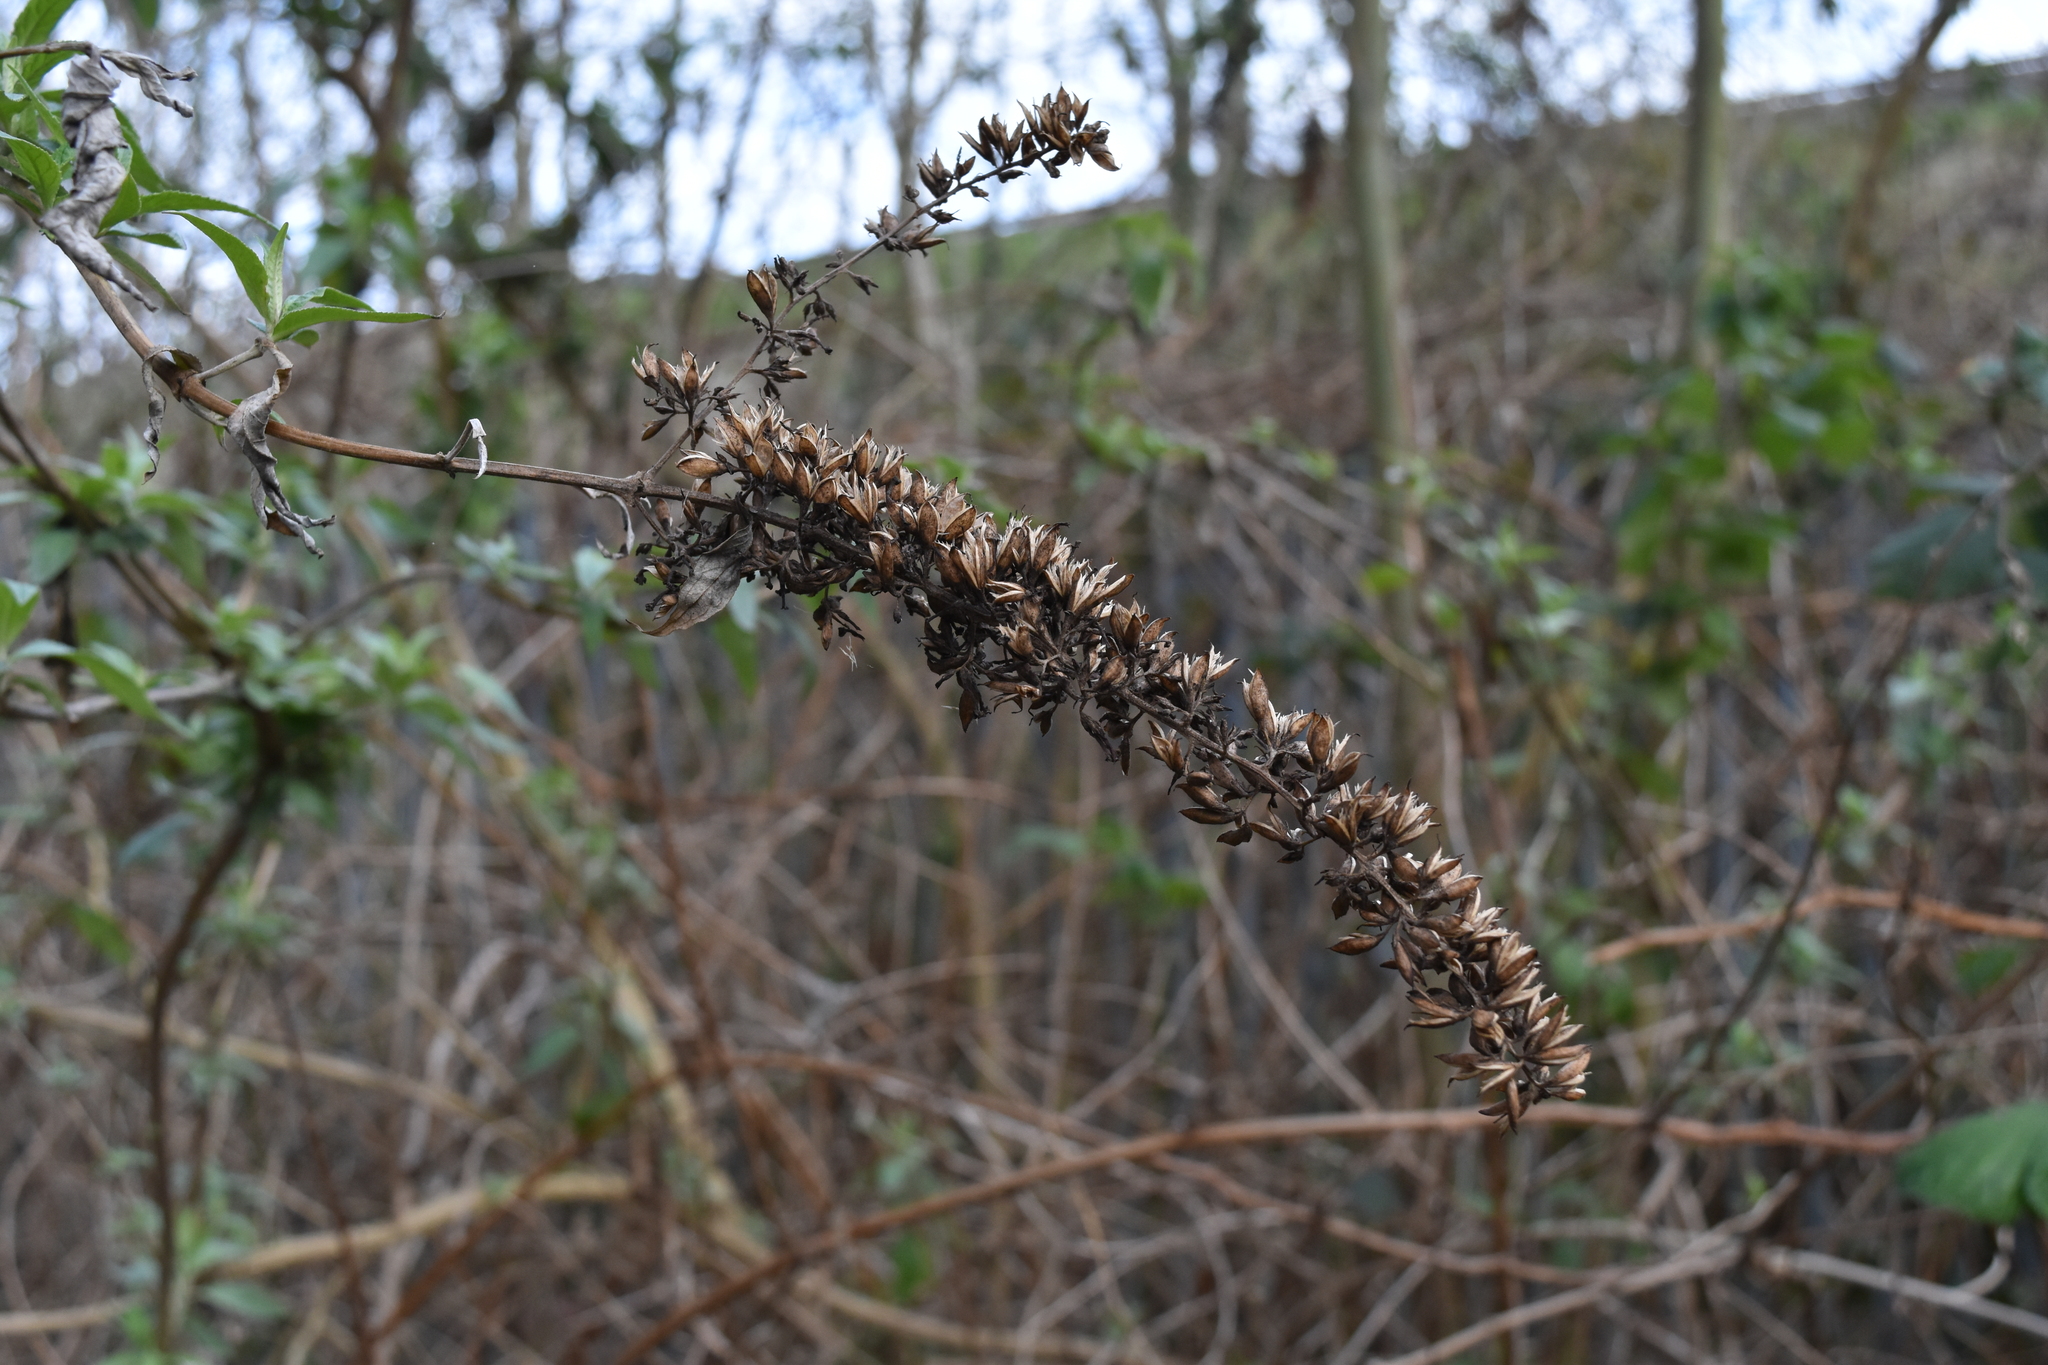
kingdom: Plantae
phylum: Tracheophyta
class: Magnoliopsida
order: Lamiales
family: Scrophulariaceae
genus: Buddleja
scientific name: Buddleja davidii
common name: Butterfly-bush
